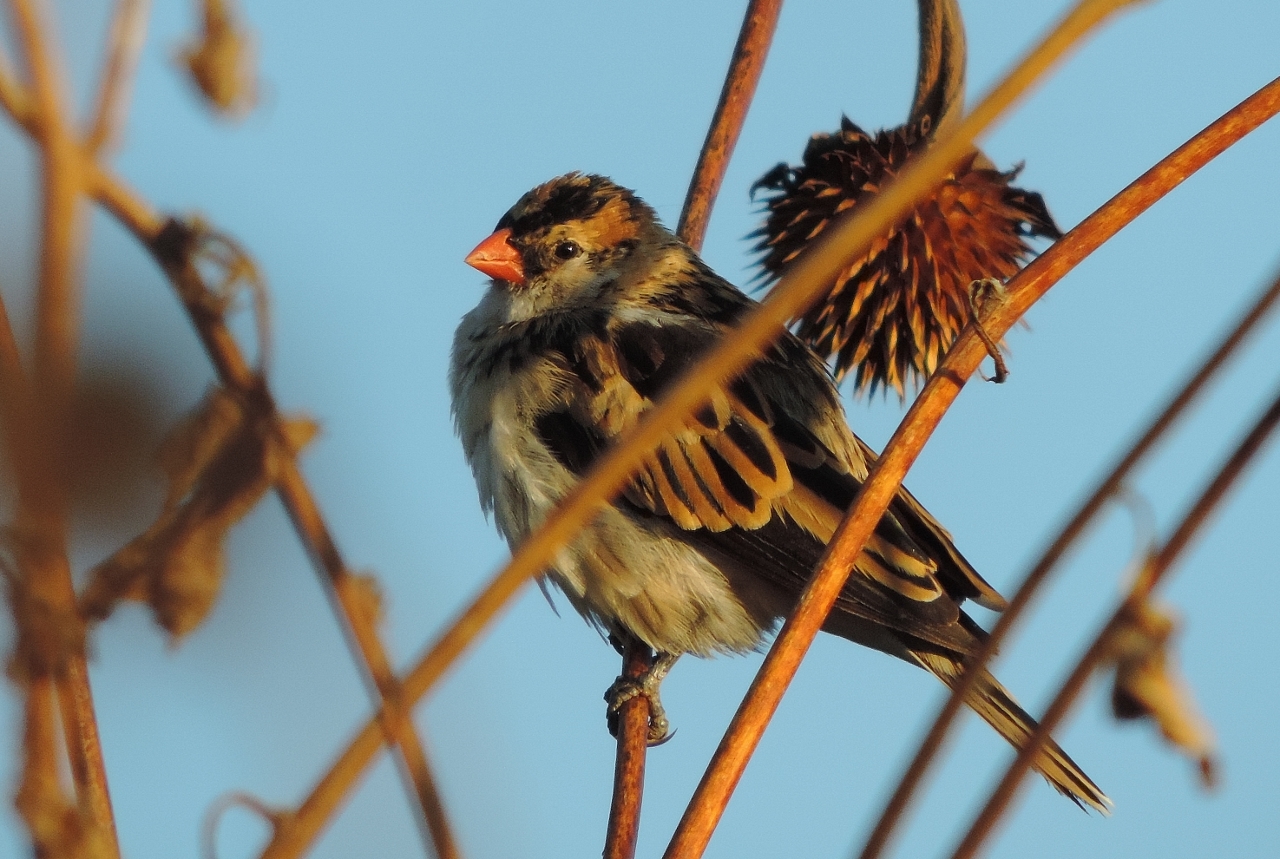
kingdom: Animalia
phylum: Chordata
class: Aves
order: Passeriformes
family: Viduidae
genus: Vidua
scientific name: Vidua macroura
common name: Pin-tailed whydah
